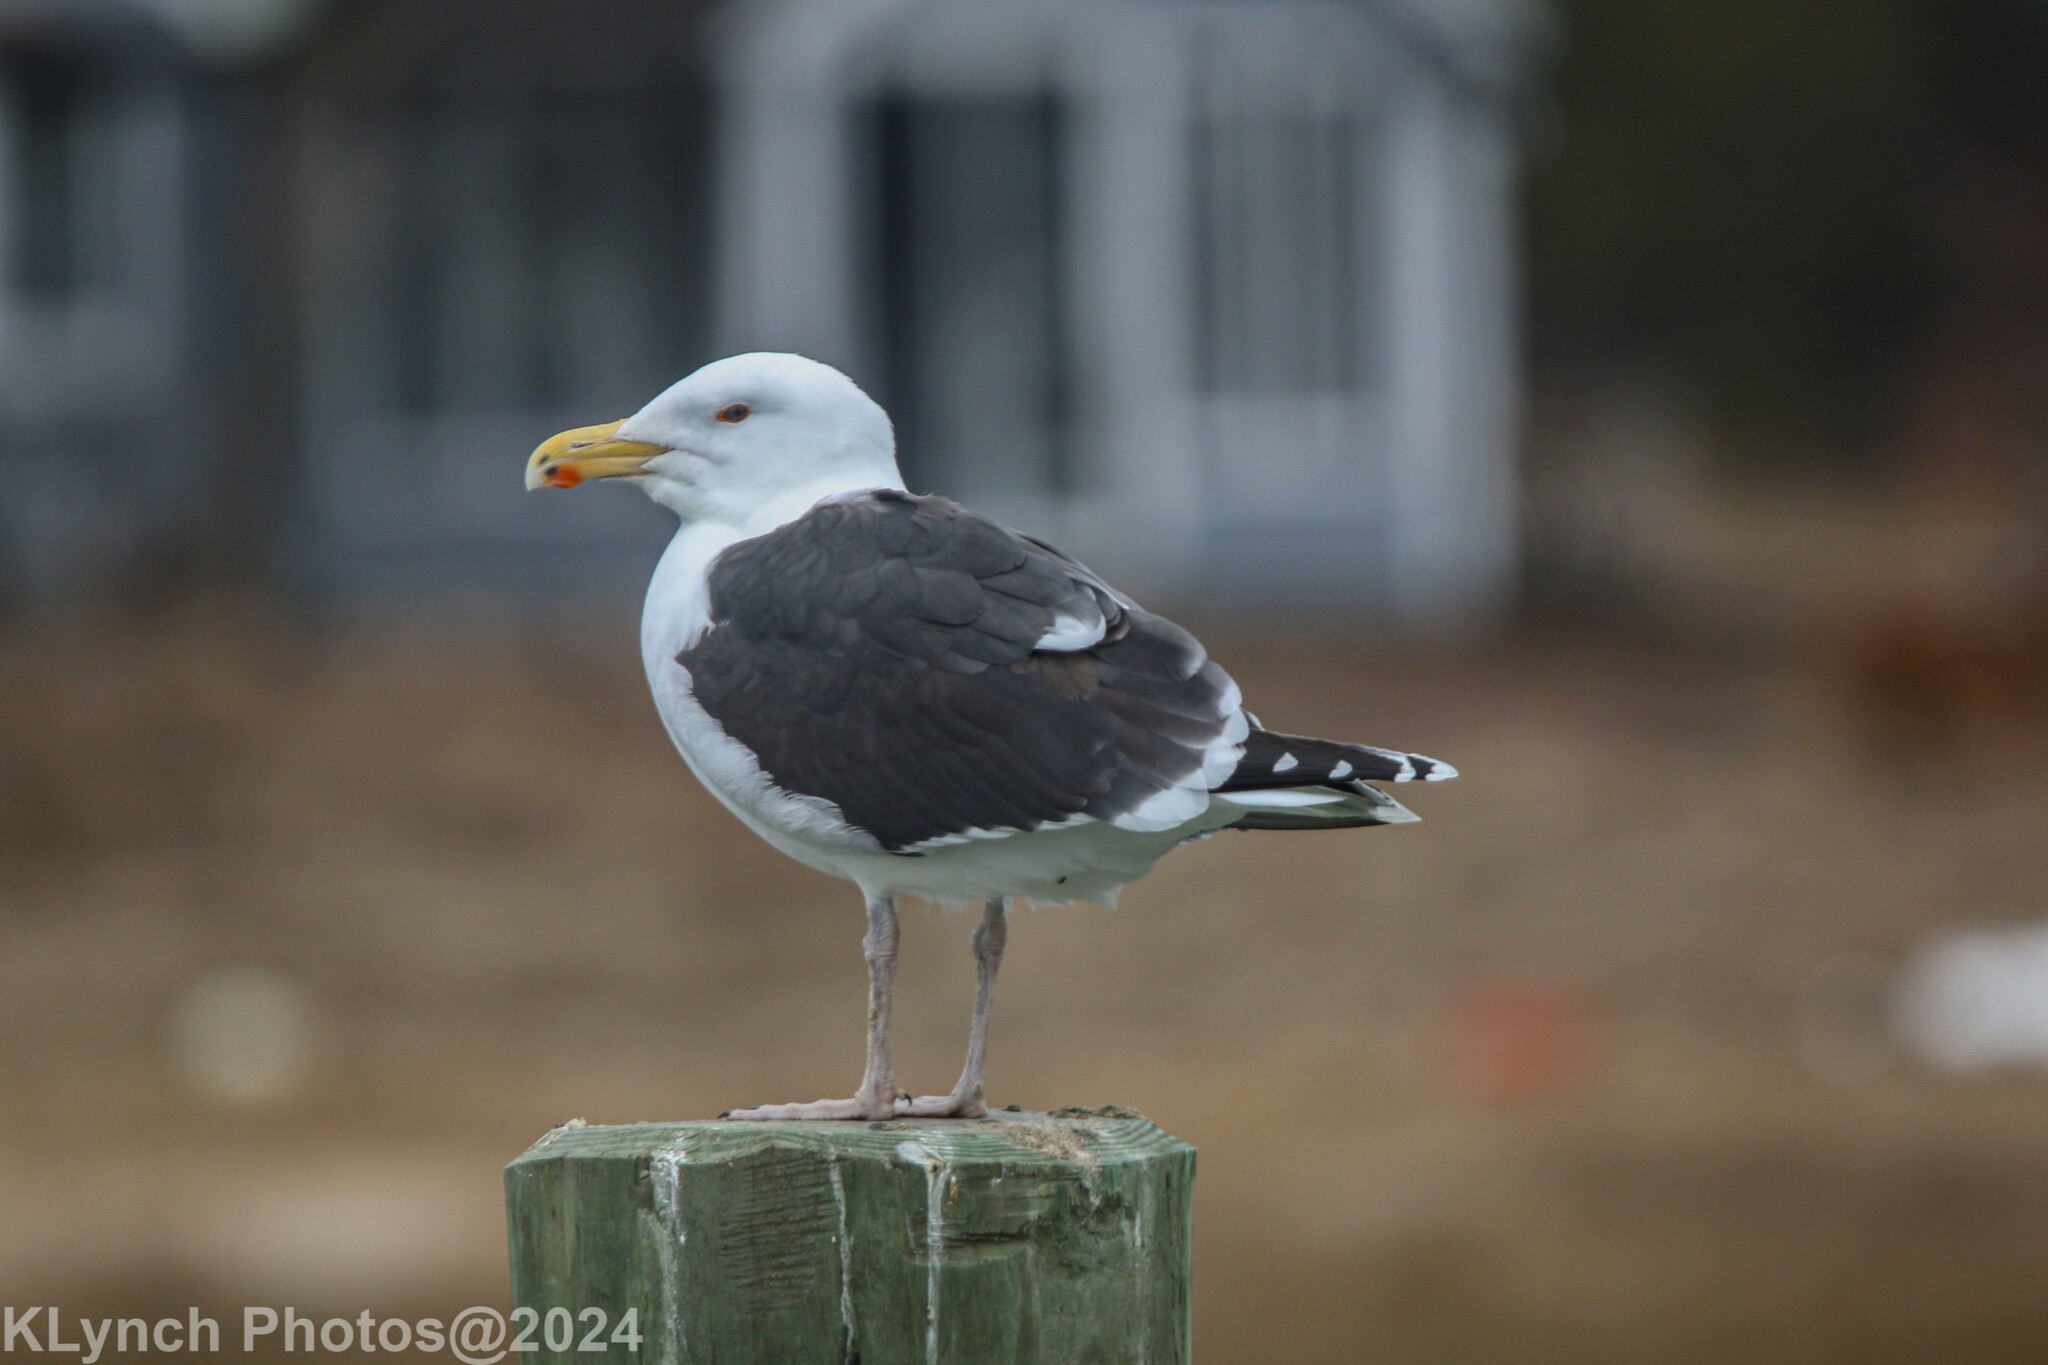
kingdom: Animalia
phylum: Chordata
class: Aves
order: Charadriiformes
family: Laridae
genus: Larus
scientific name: Larus marinus
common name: Great black-backed gull
